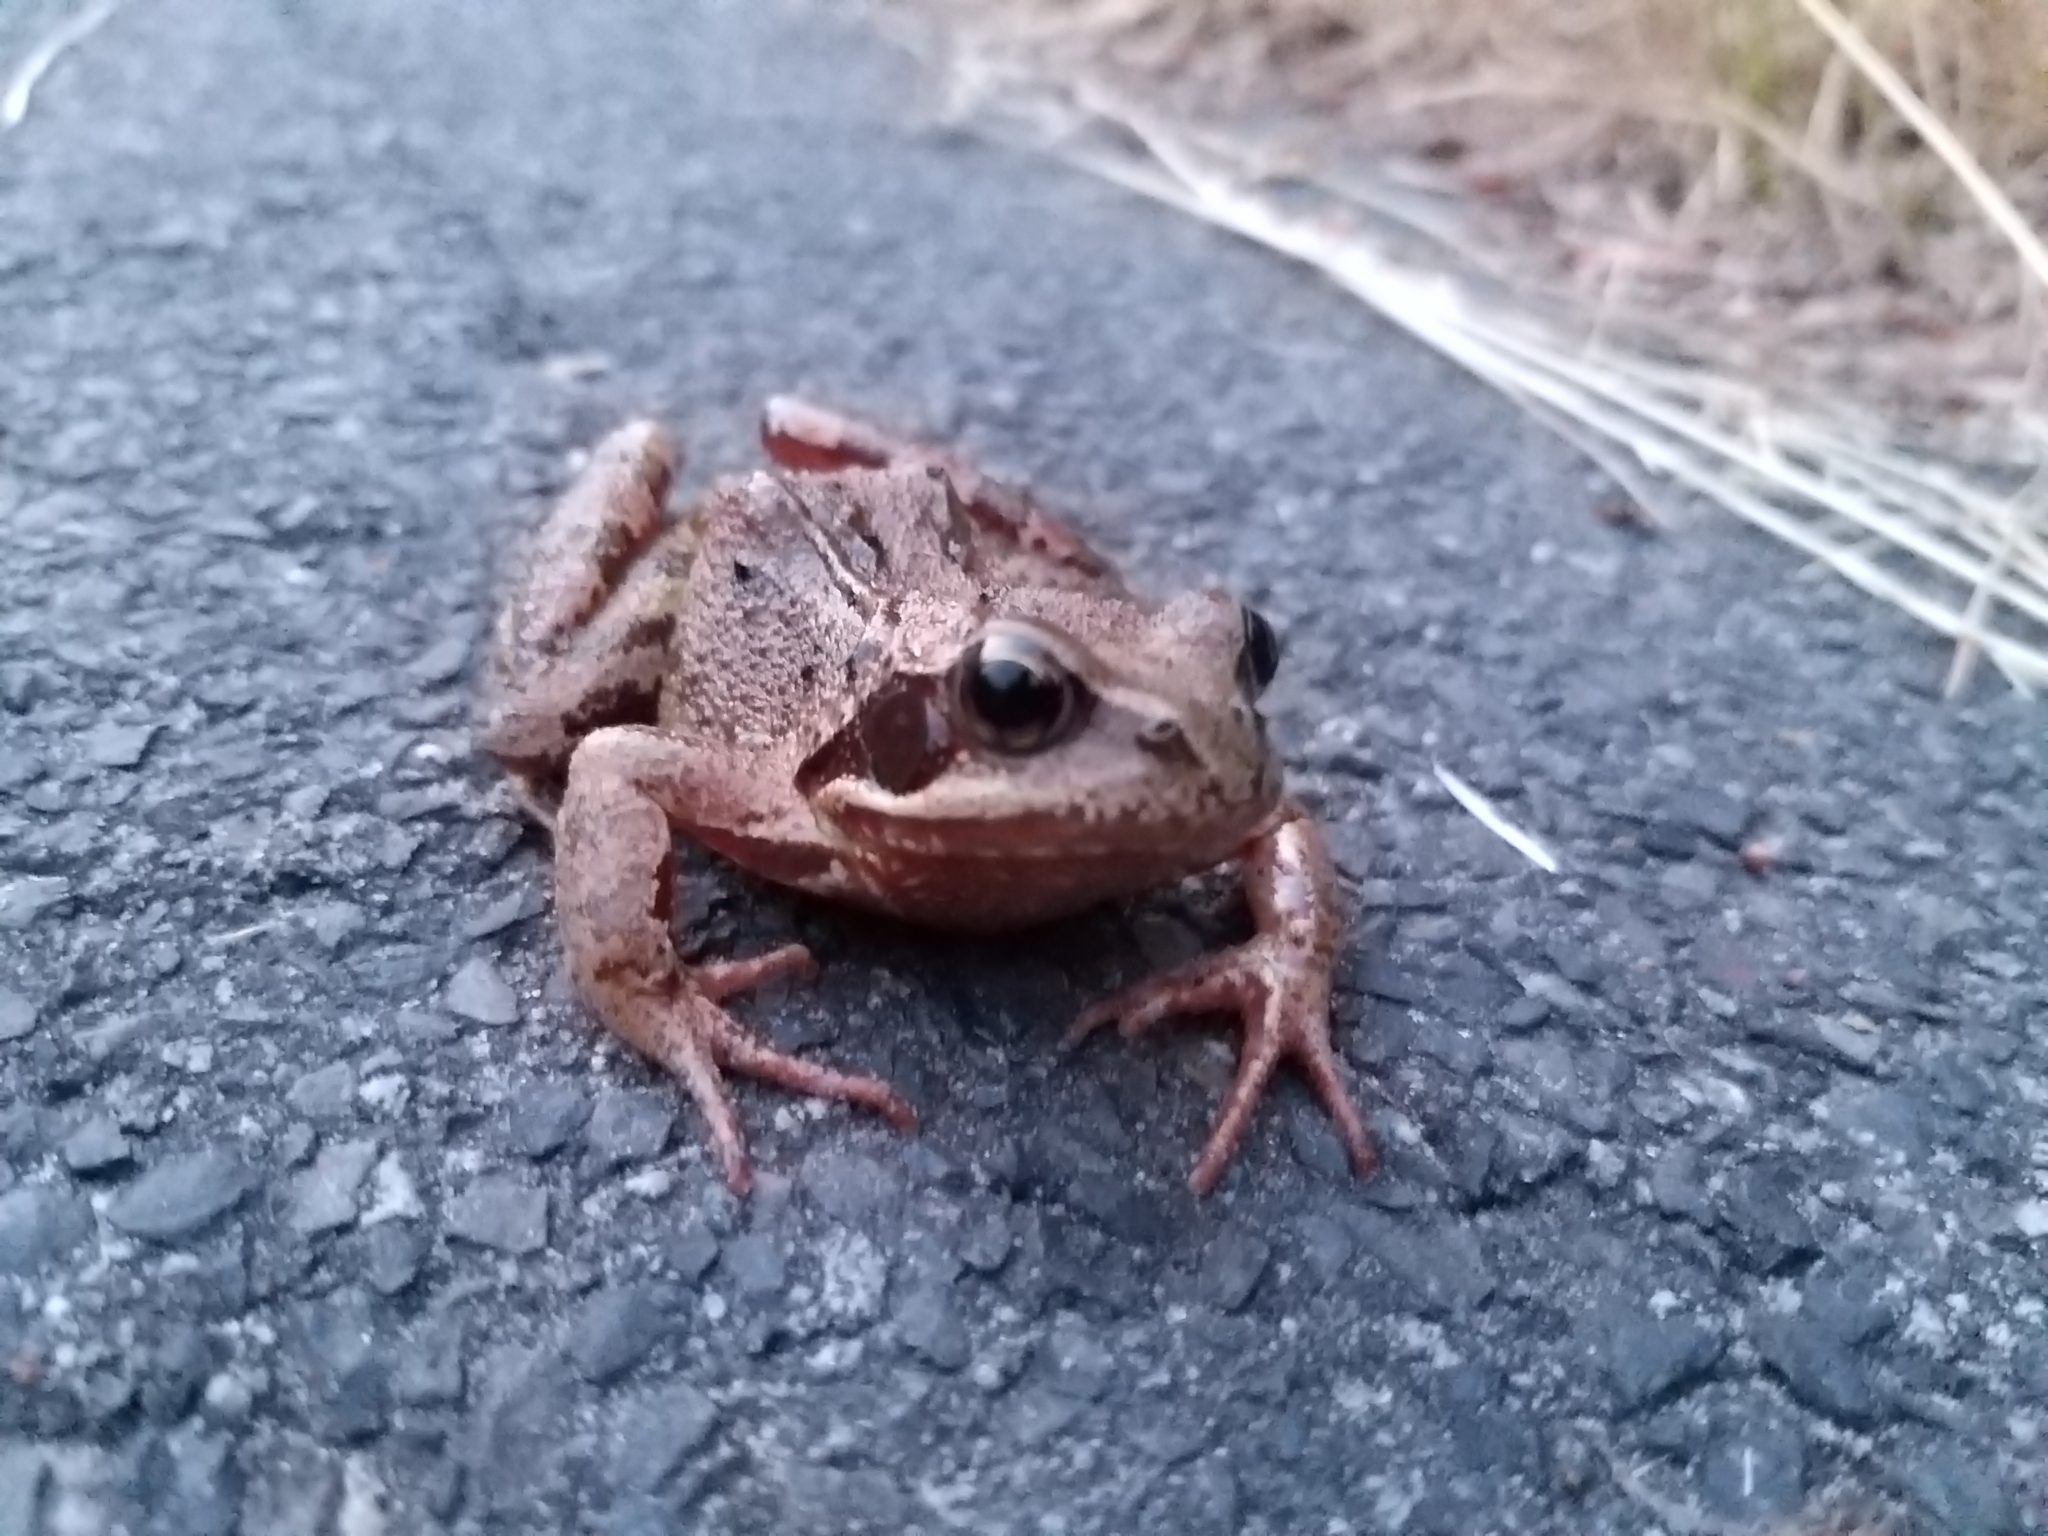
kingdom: Animalia
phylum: Chordata
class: Amphibia
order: Anura
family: Ranidae
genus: Rana
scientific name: Rana temporaria
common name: Common frog
